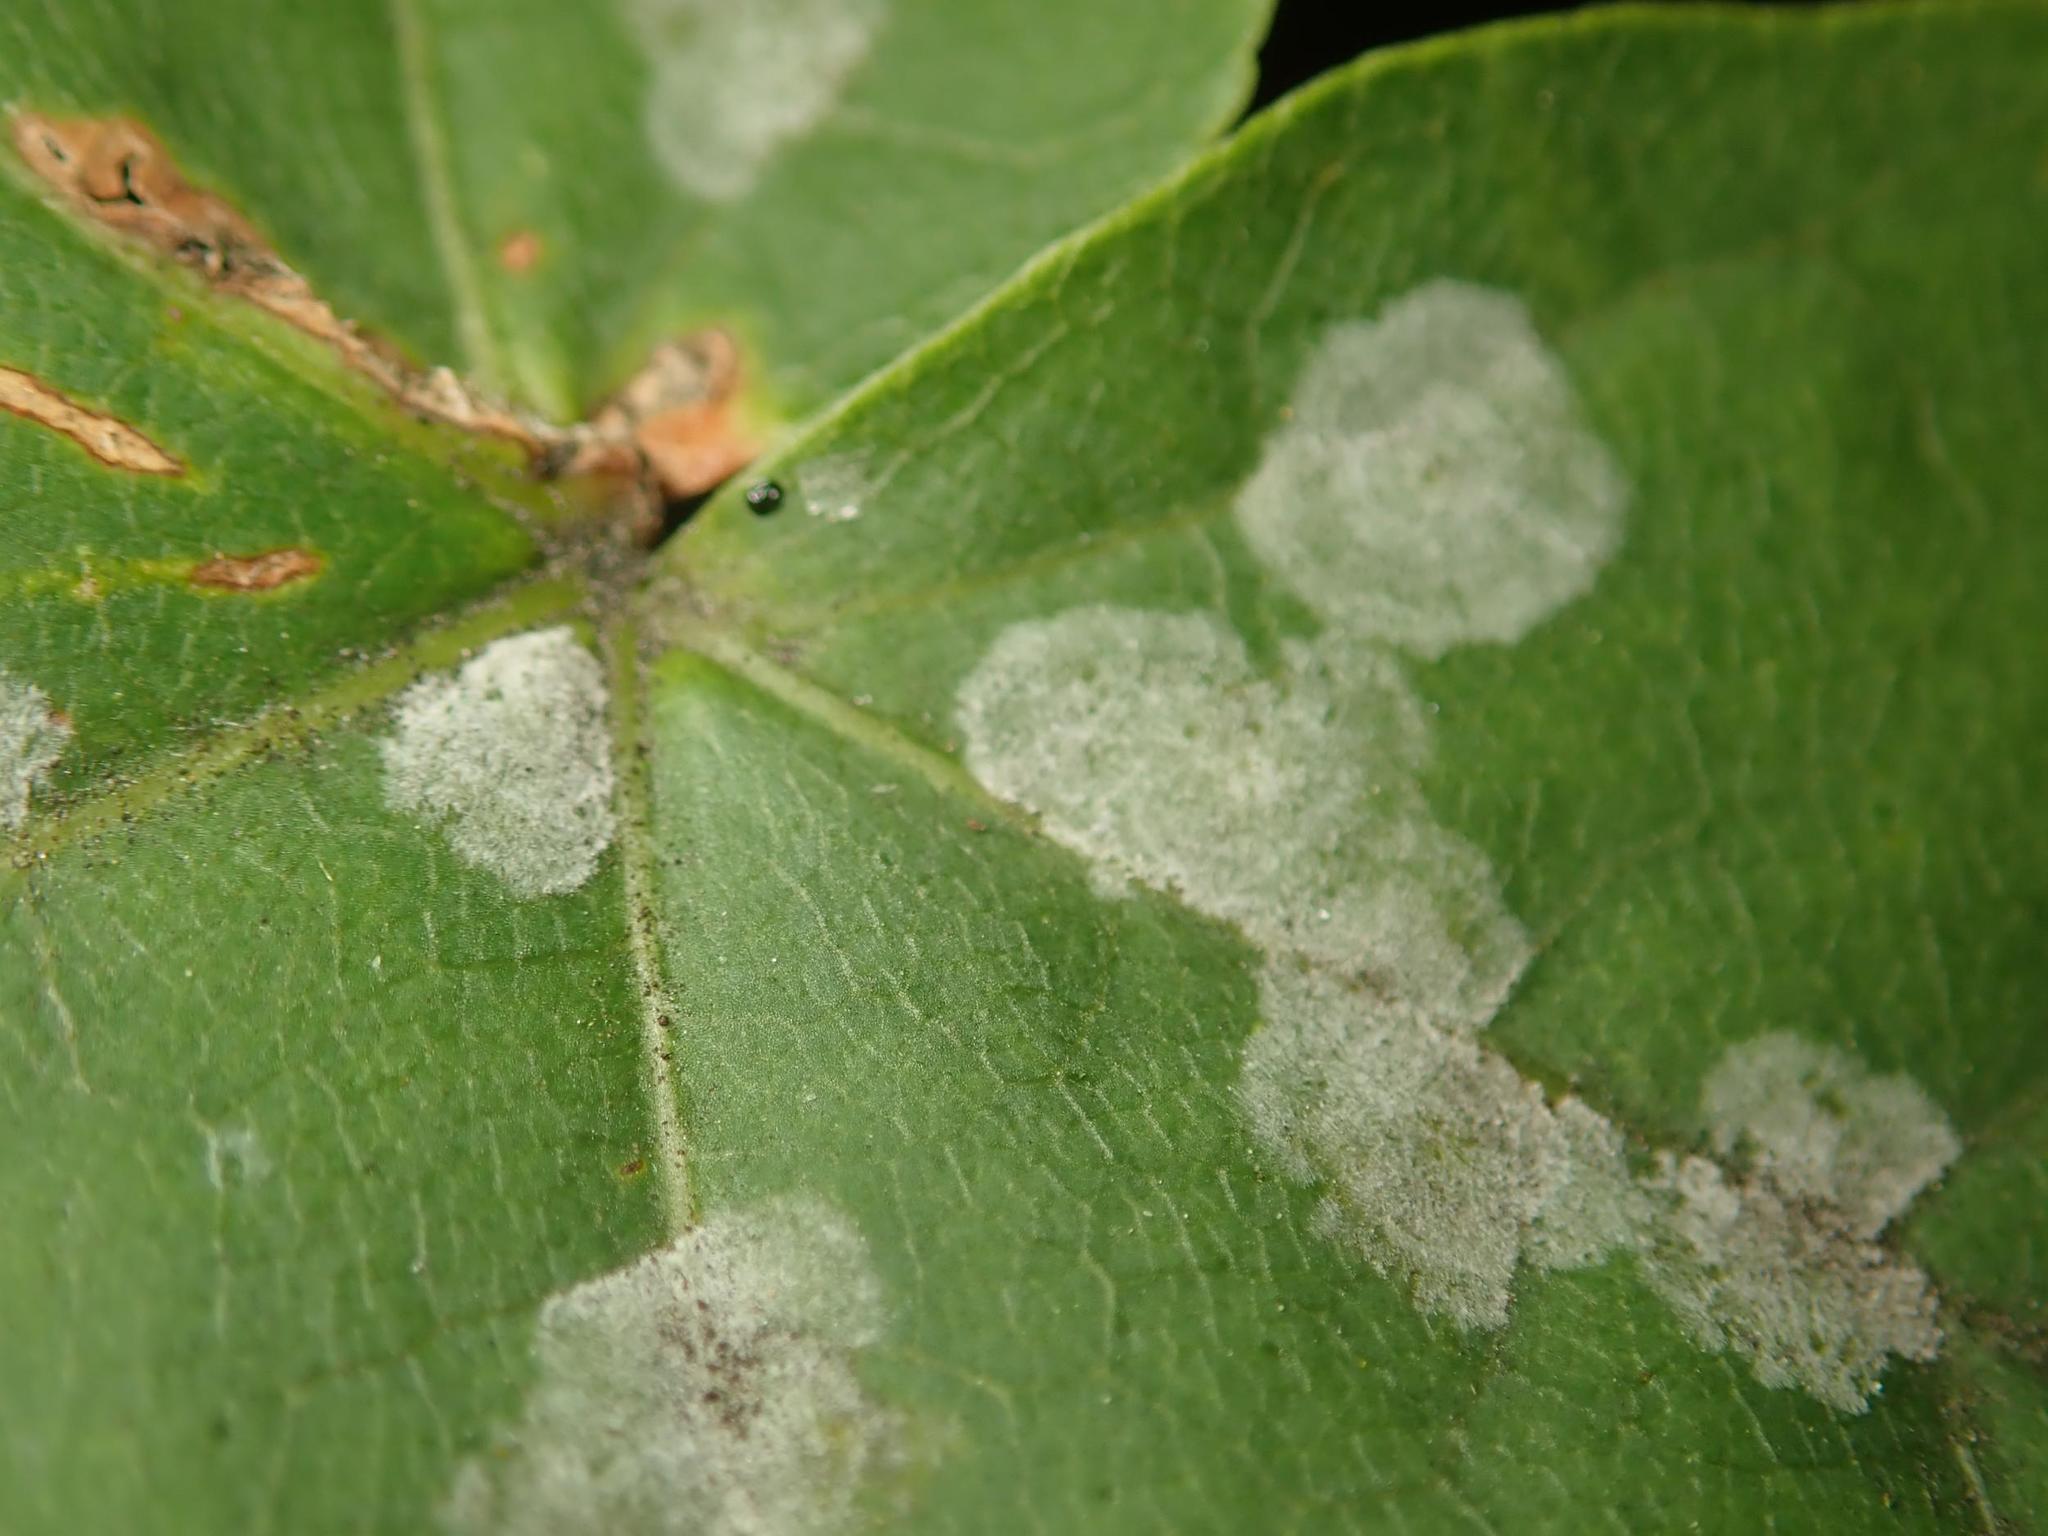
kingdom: Fungi
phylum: Ascomycota
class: Leotiomycetes
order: Helotiales
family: Erysiphaceae
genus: Sawadaea
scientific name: Sawadaea tulasnei
